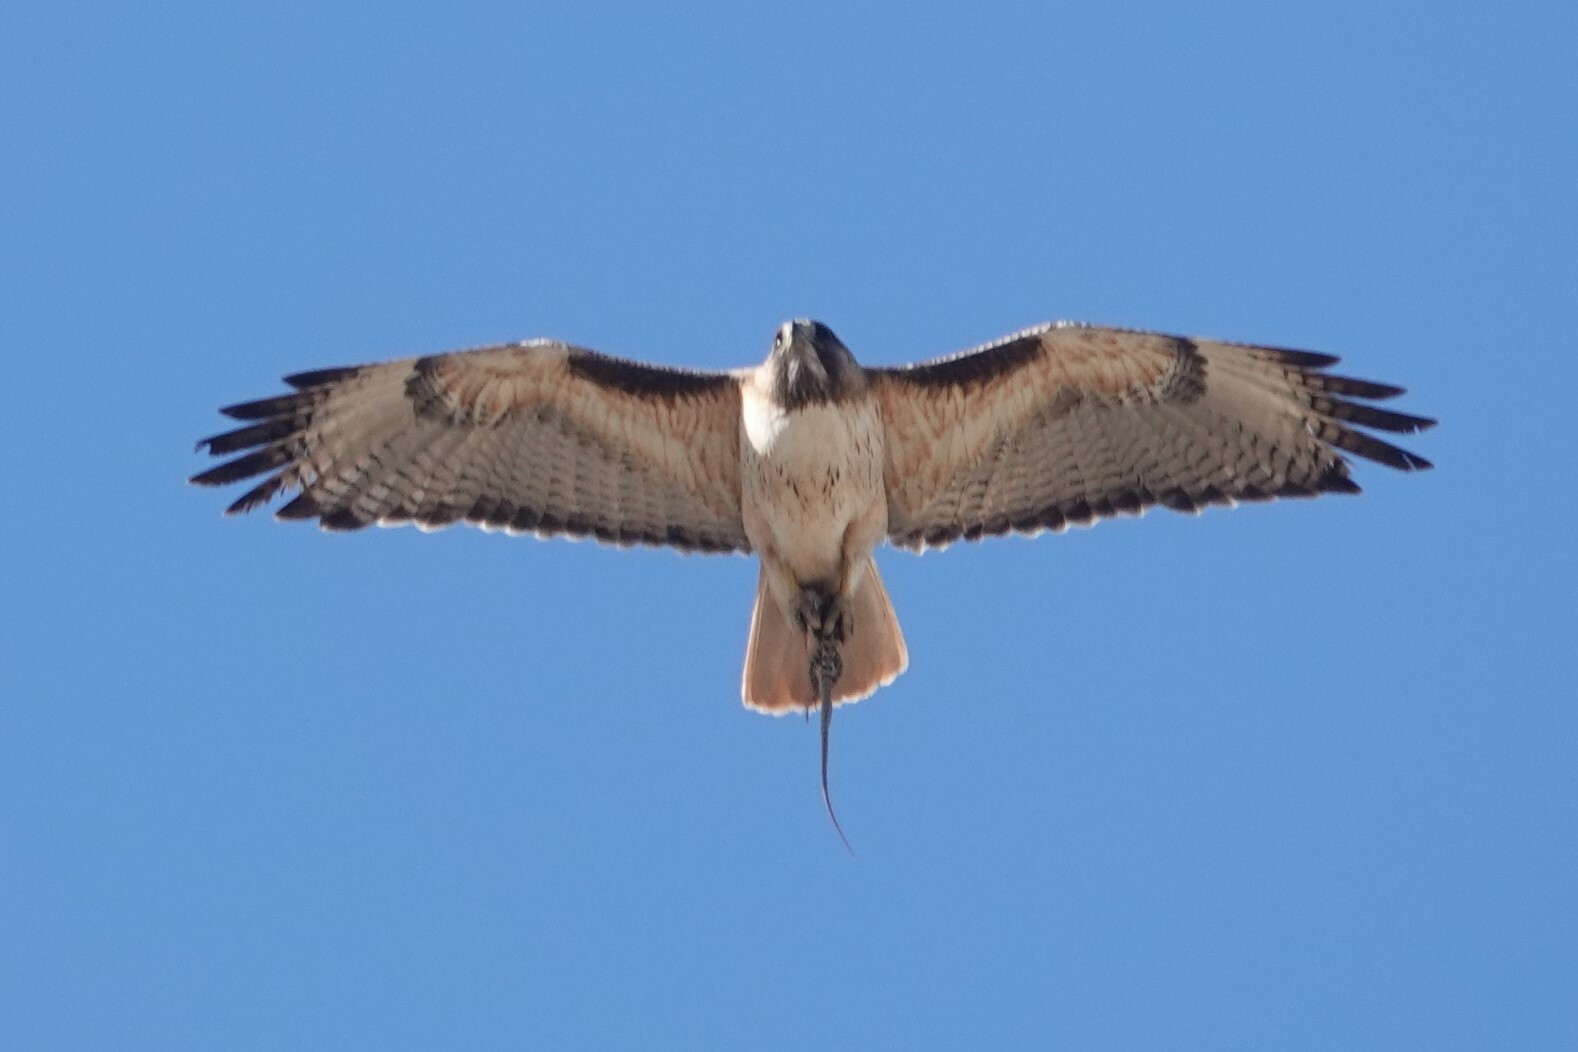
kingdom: Animalia
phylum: Chordata
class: Aves
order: Accipitriformes
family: Accipitridae
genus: Buteo
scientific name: Buteo jamaicensis
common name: Red-tailed hawk
